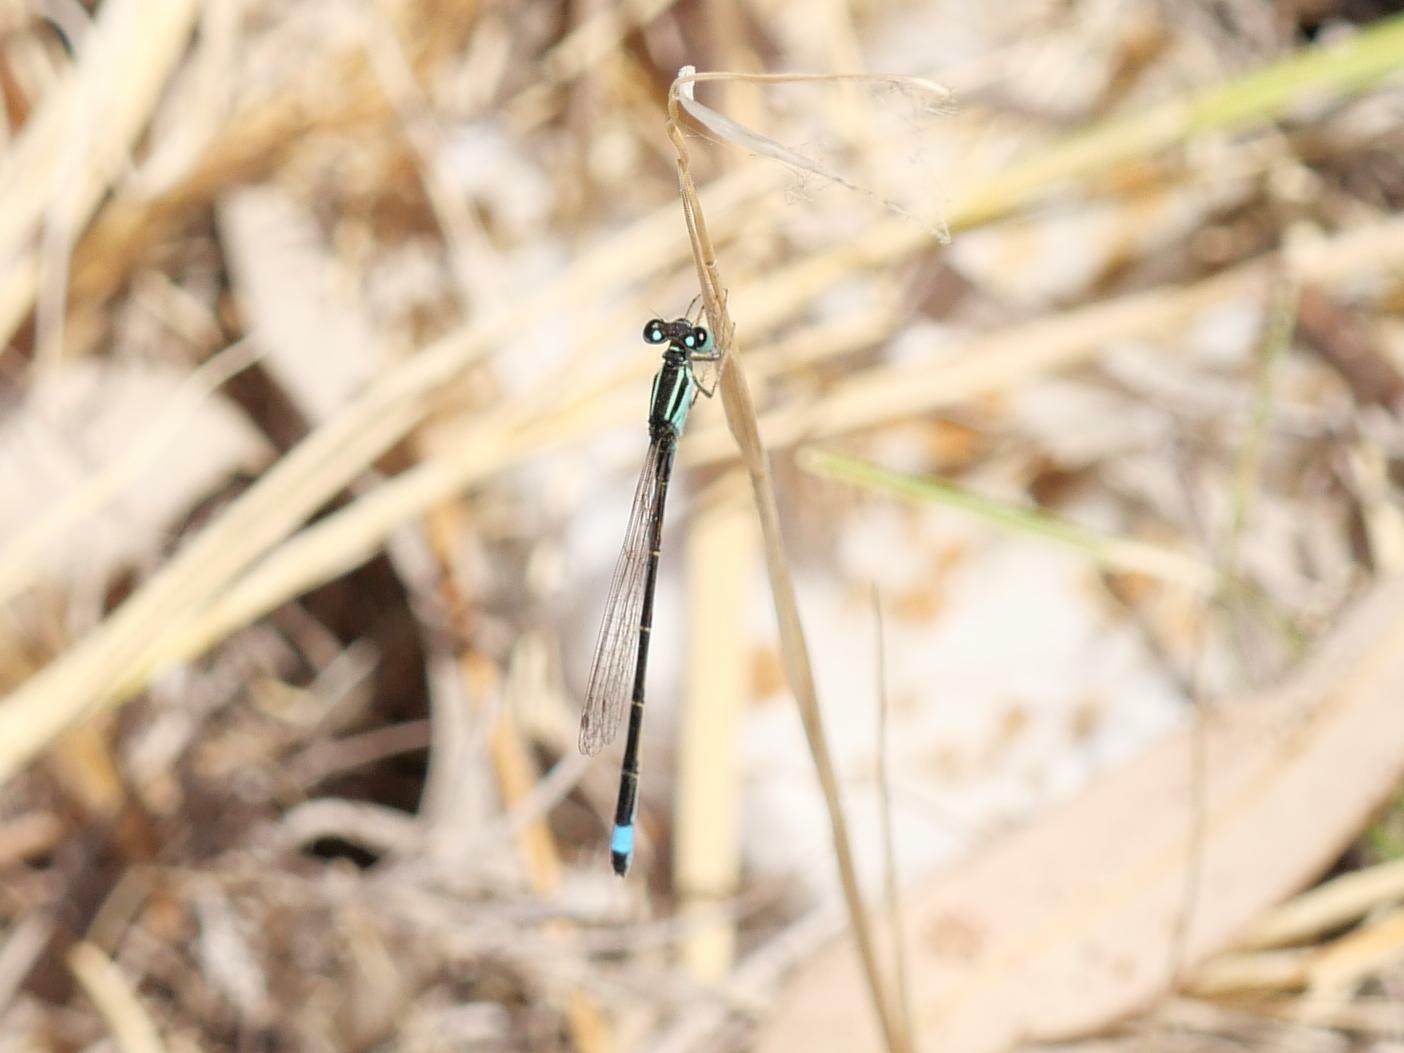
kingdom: Animalia
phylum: Arthropoda
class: Insecta
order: Odonata
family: Coenagrionidae
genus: Ischnura
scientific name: Ischnura elegans
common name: Blue-tailed damselfly
